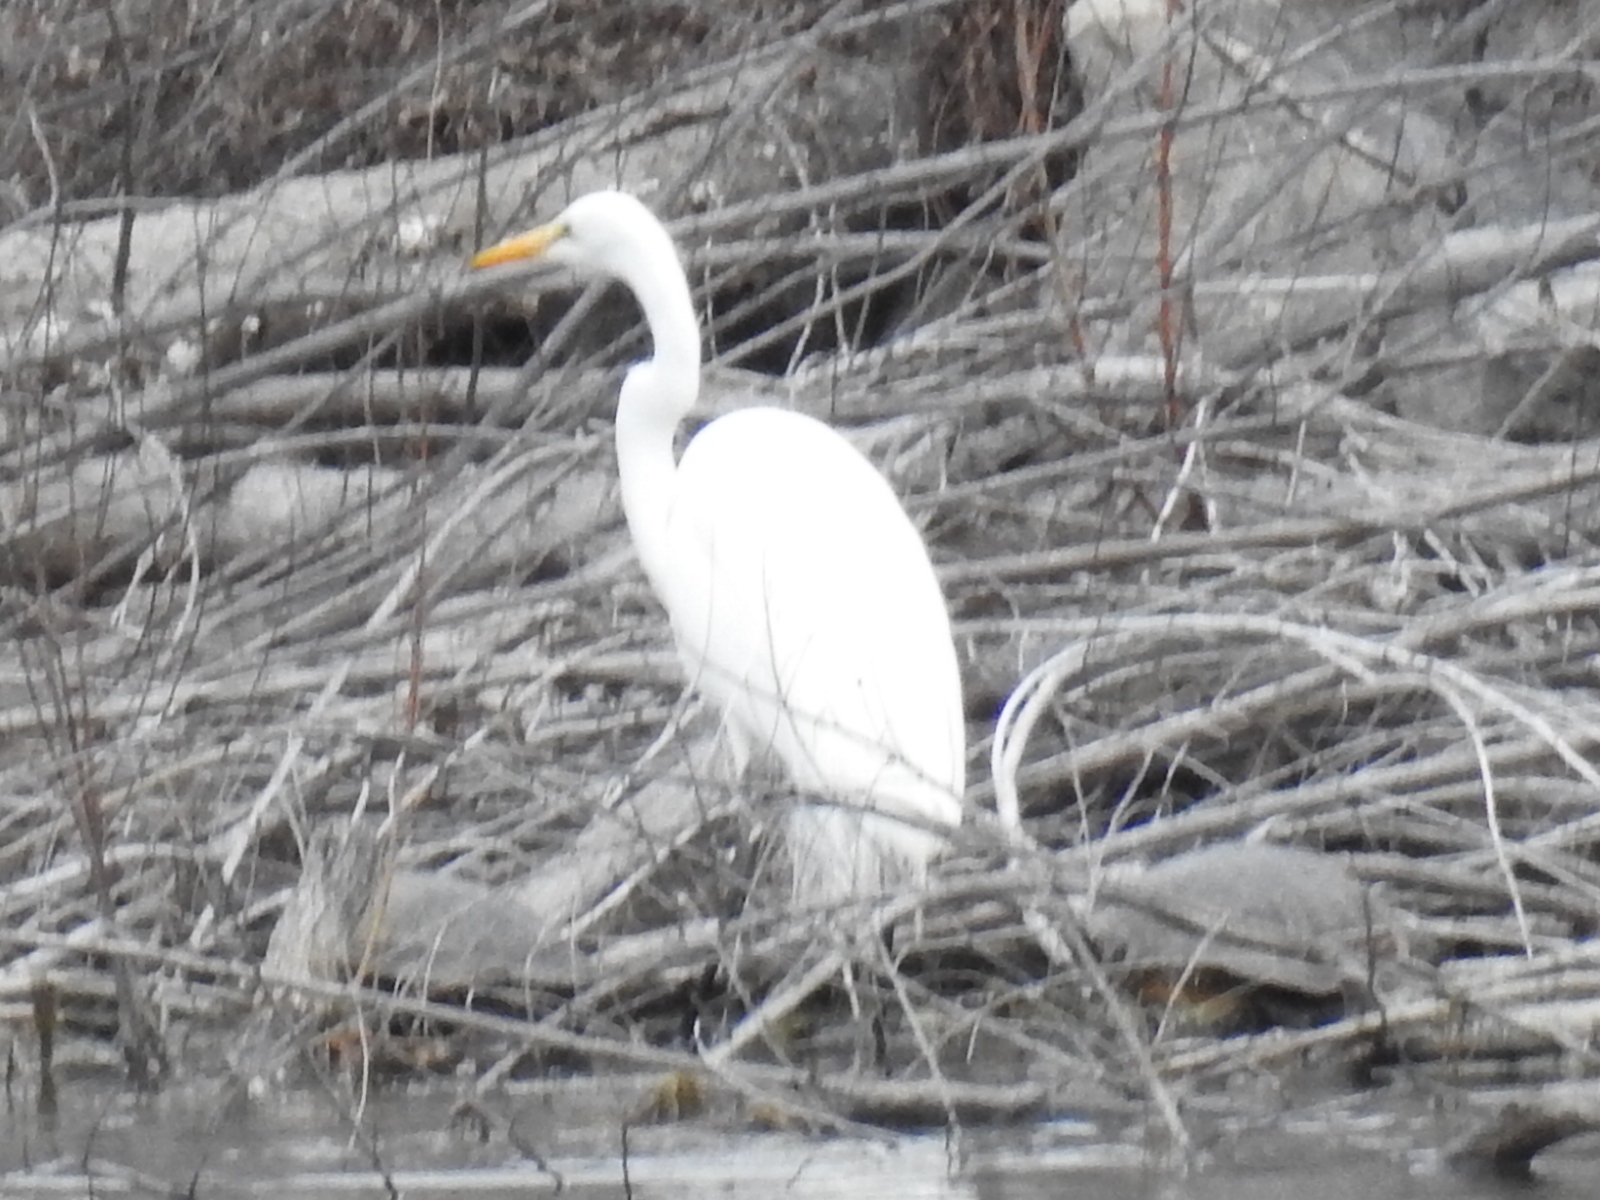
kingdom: Animalia
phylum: Chordata
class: Aves
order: Pelecaniformes
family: Ardeidae
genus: Ardea
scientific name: Ardea alba
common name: Great egret
